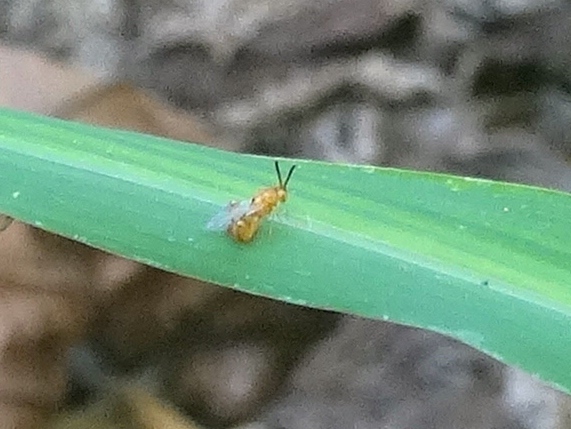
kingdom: Animalia
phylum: Arthropoda
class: Insecta
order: Hymenoptera
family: Chalcididae
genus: Conura
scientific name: Conura
